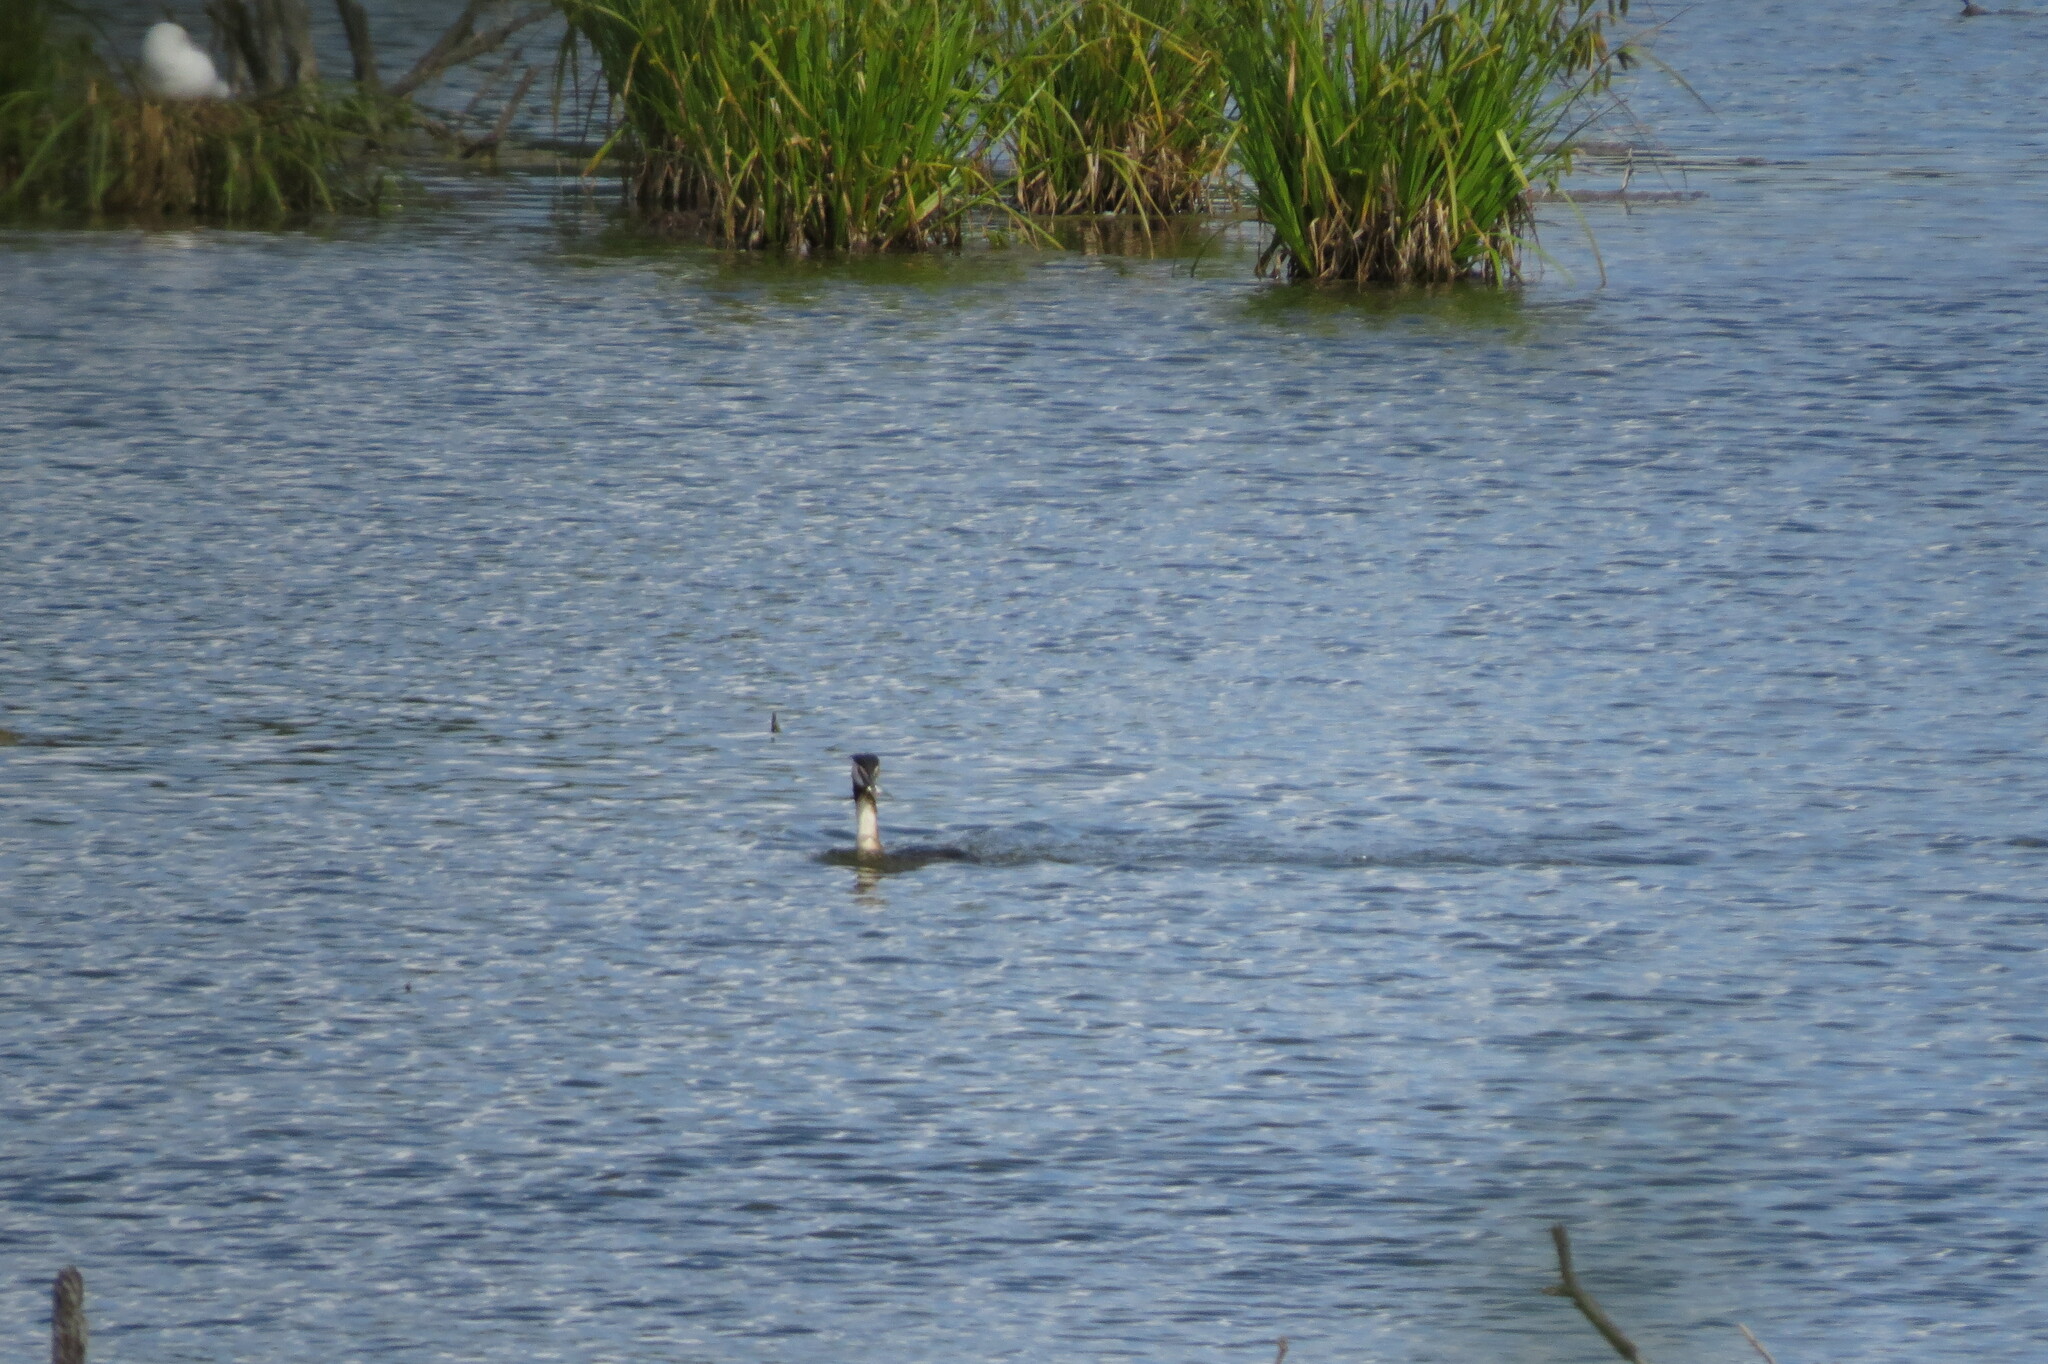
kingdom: Animalia
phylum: Chordata
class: Aves
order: Podicipediformes
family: Podicipedidae
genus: Podiceps
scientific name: Podiceps cristatus
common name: Great crested grebe
